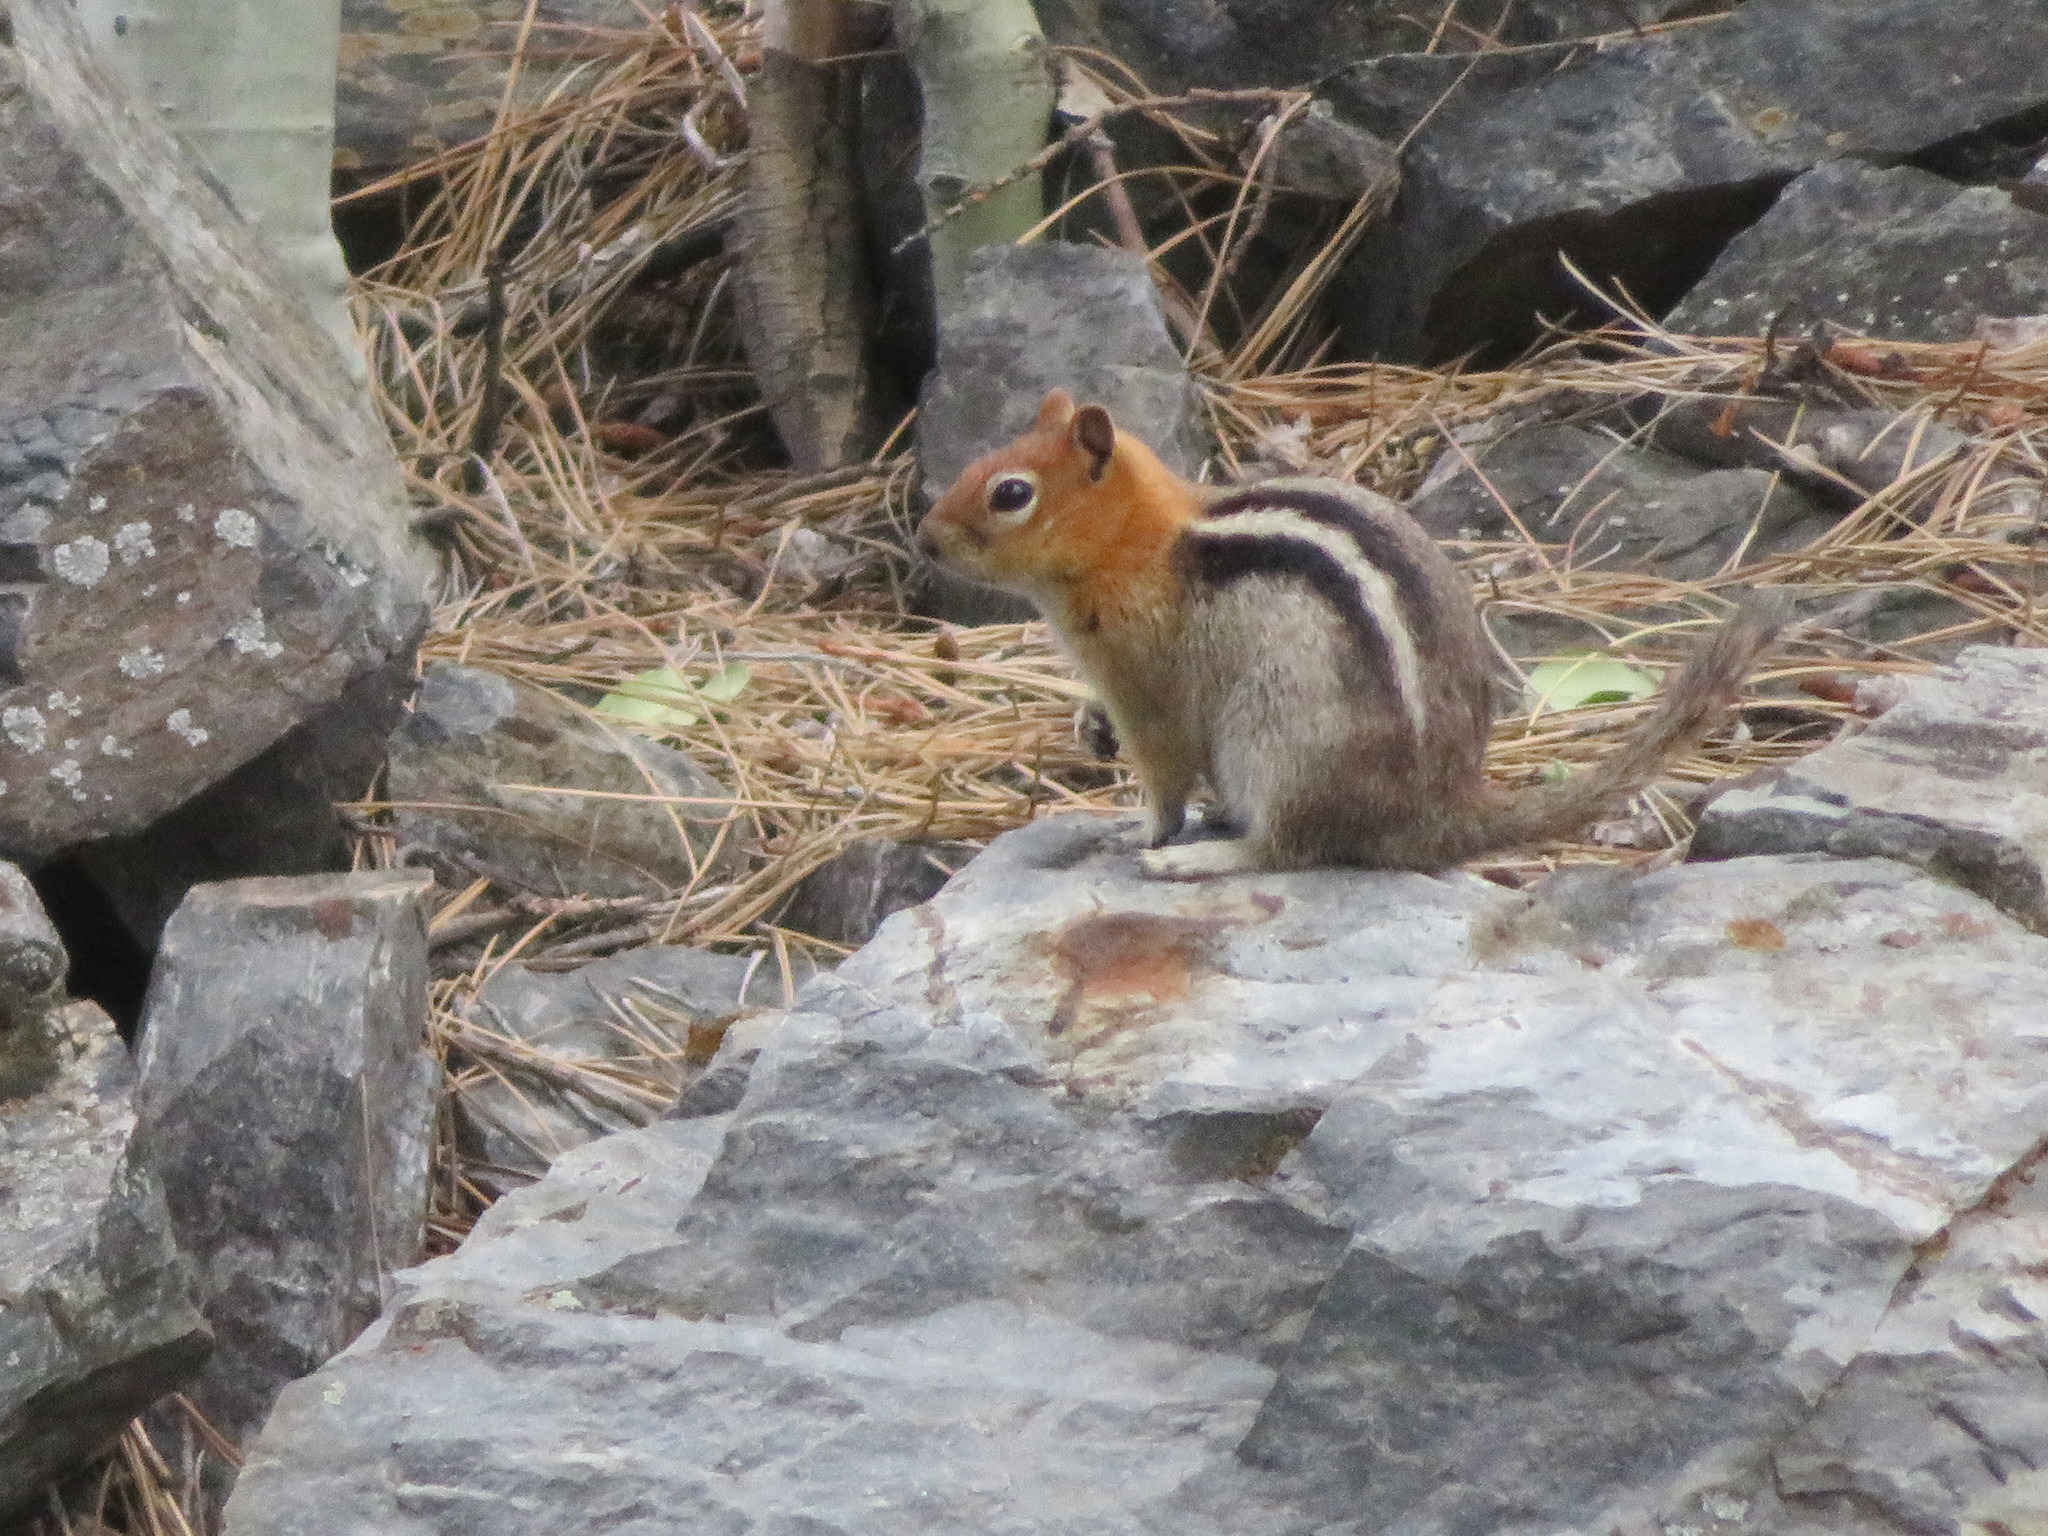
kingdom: Animalia
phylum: Chordata
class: Mammalia
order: Rodentia
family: Sciuridae
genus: Callospermophilus
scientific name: Callospermophilus lateralis
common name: Golden-mantled ground squirrel
